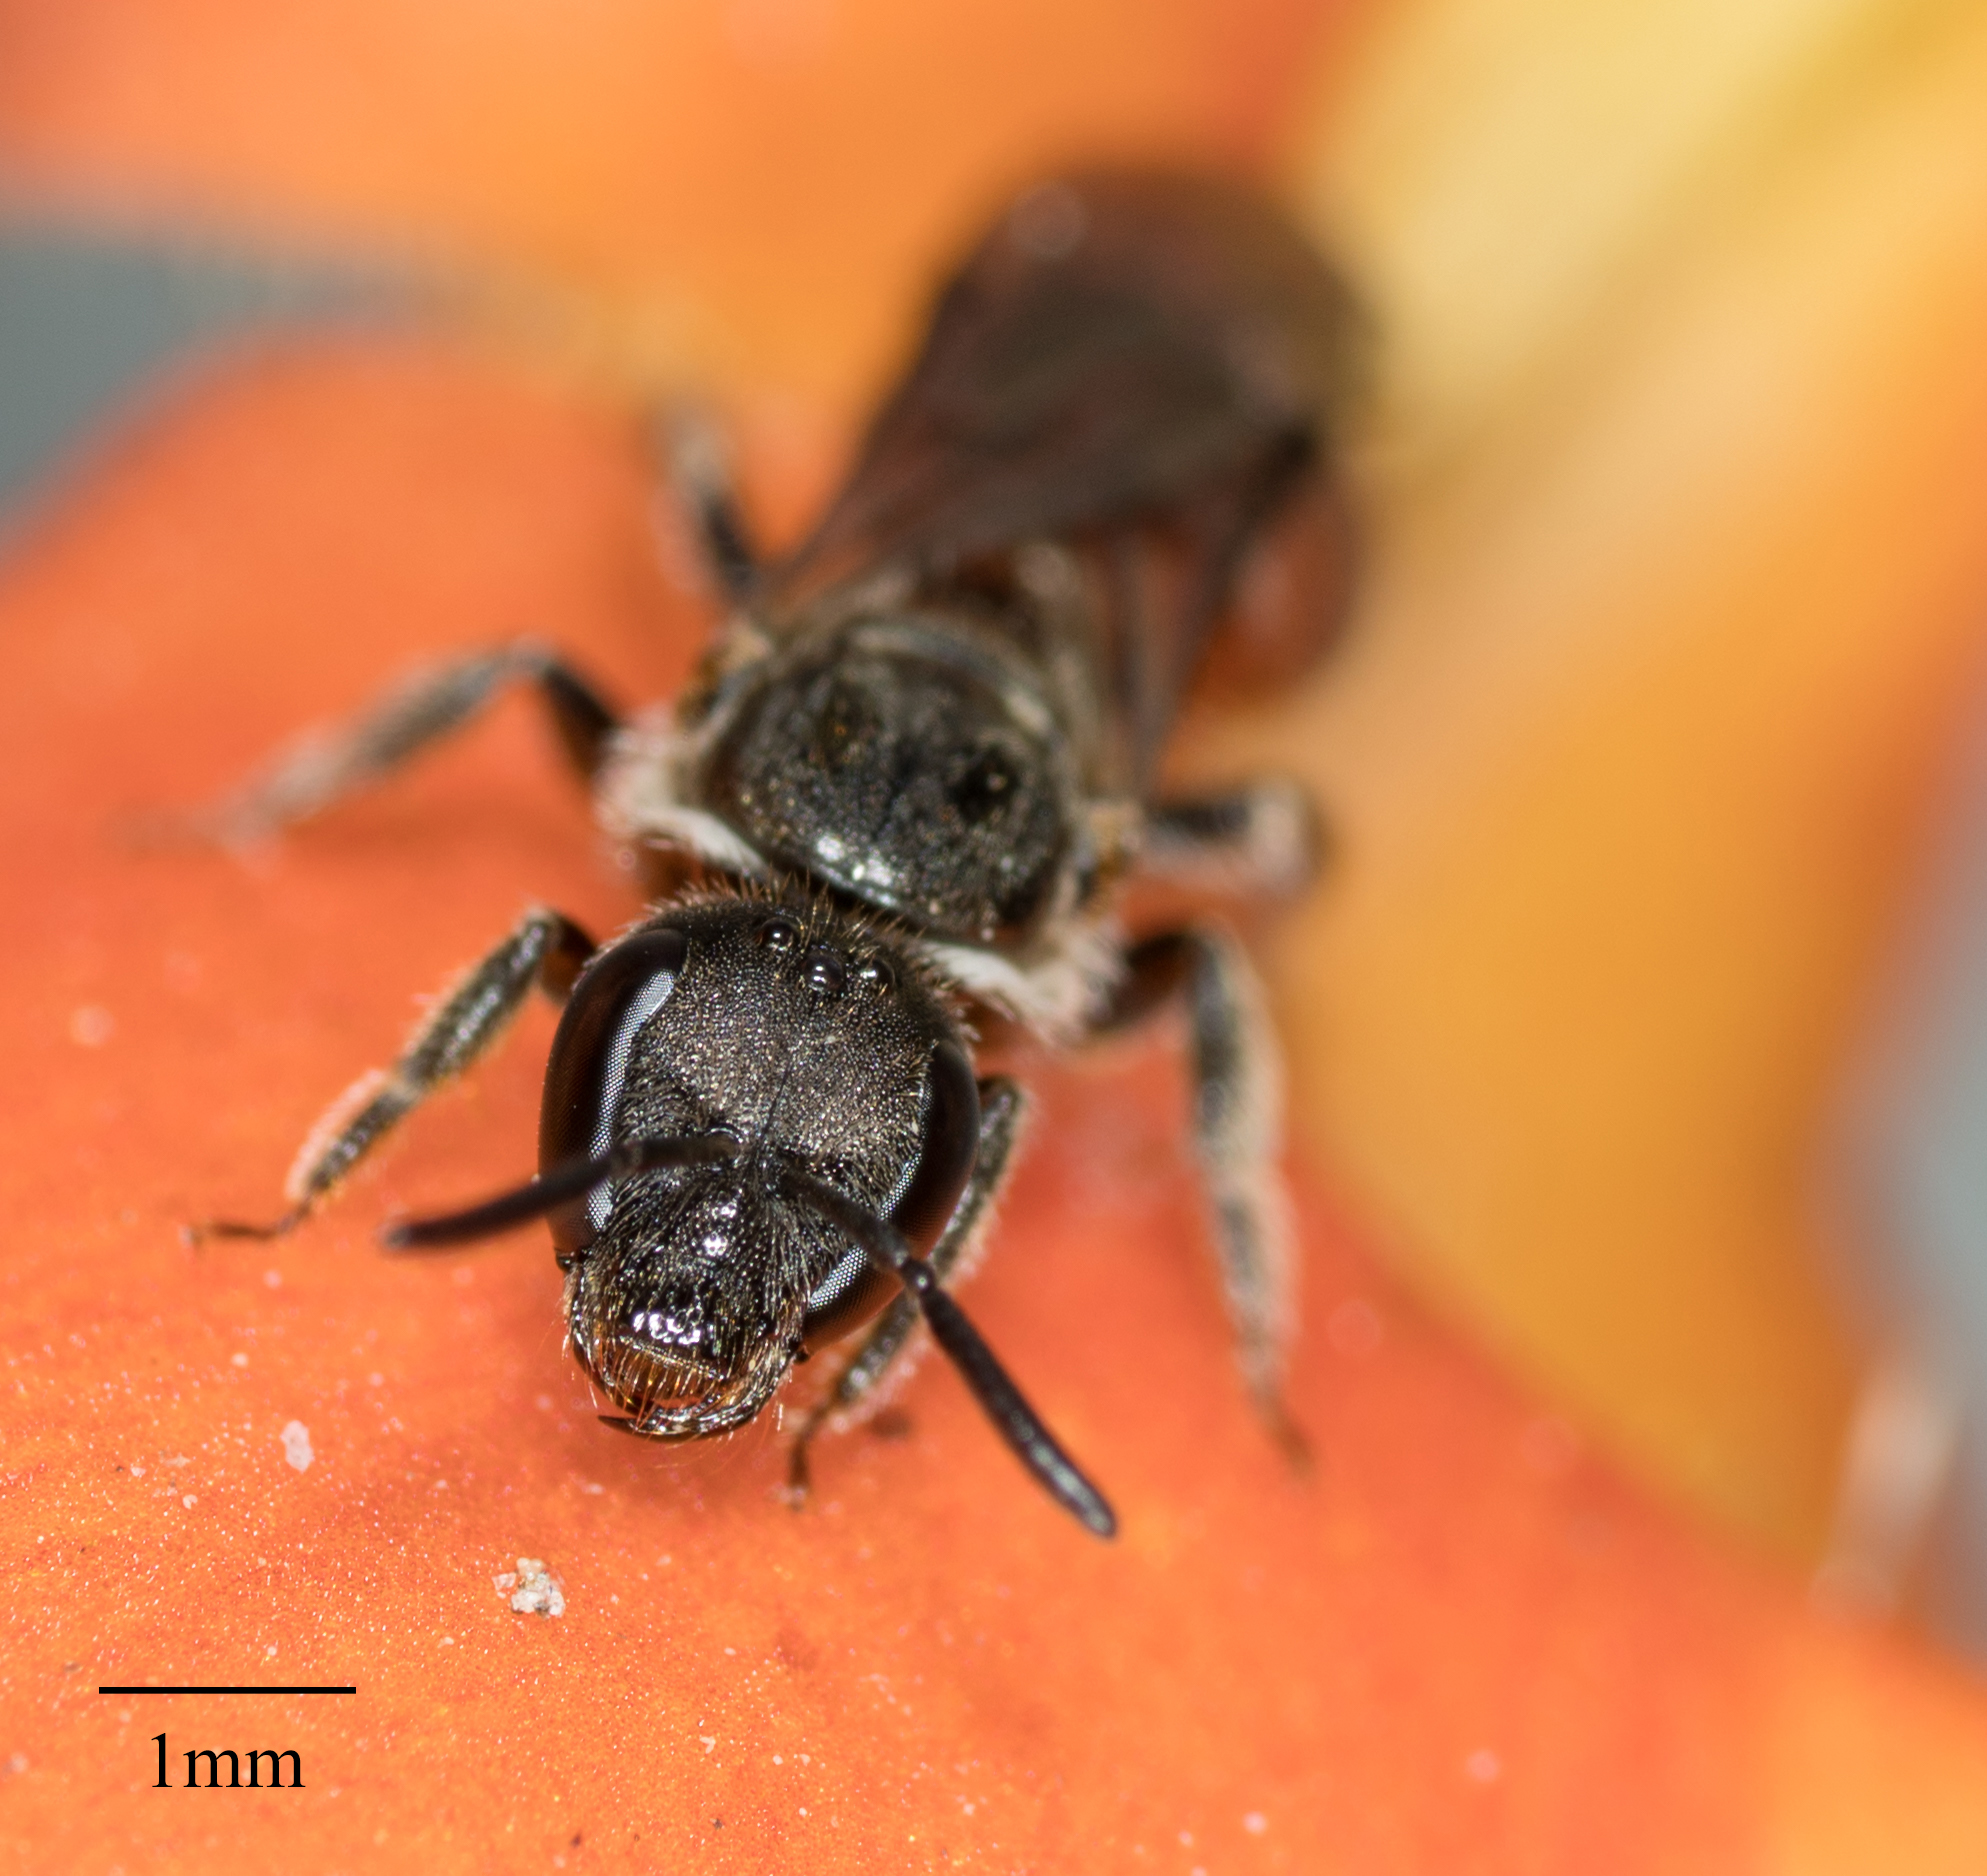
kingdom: Animalia
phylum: Arthropoda
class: Insecta
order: Hymenoptera
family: Halictidae
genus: Lasioglossum
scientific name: Lasioglossum ovaliceps
